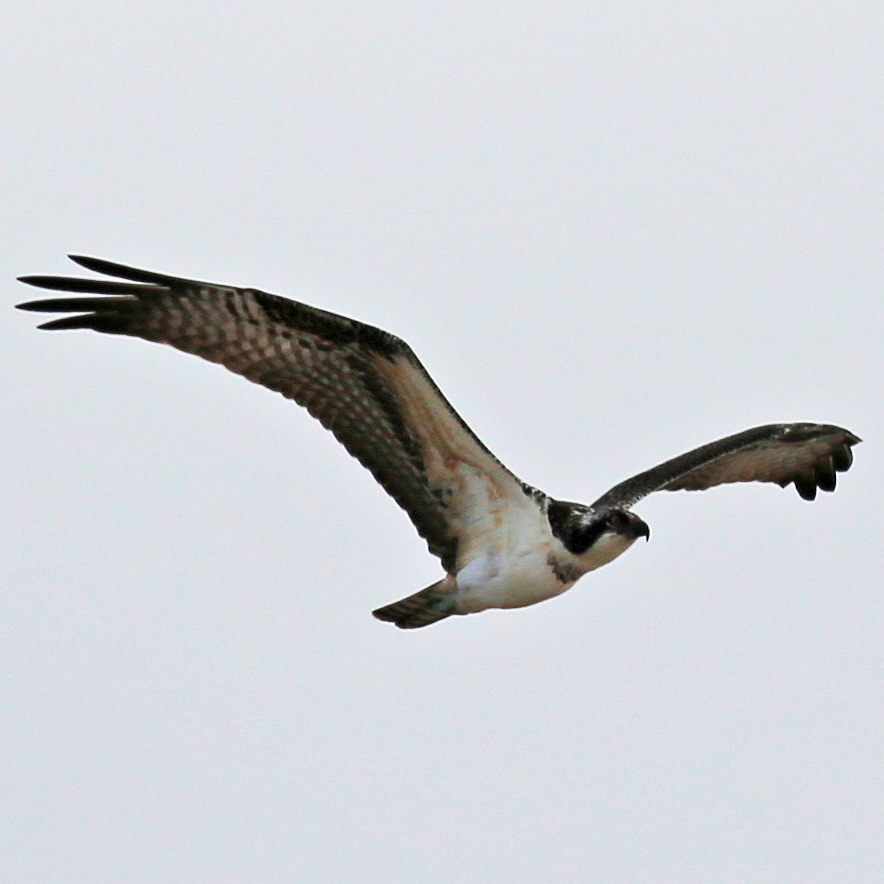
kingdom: Animalia
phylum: Chordata
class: Aves
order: Accipitriformes
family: Pandionidae
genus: Pandion
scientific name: Pandion haliaetus
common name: Osprey
